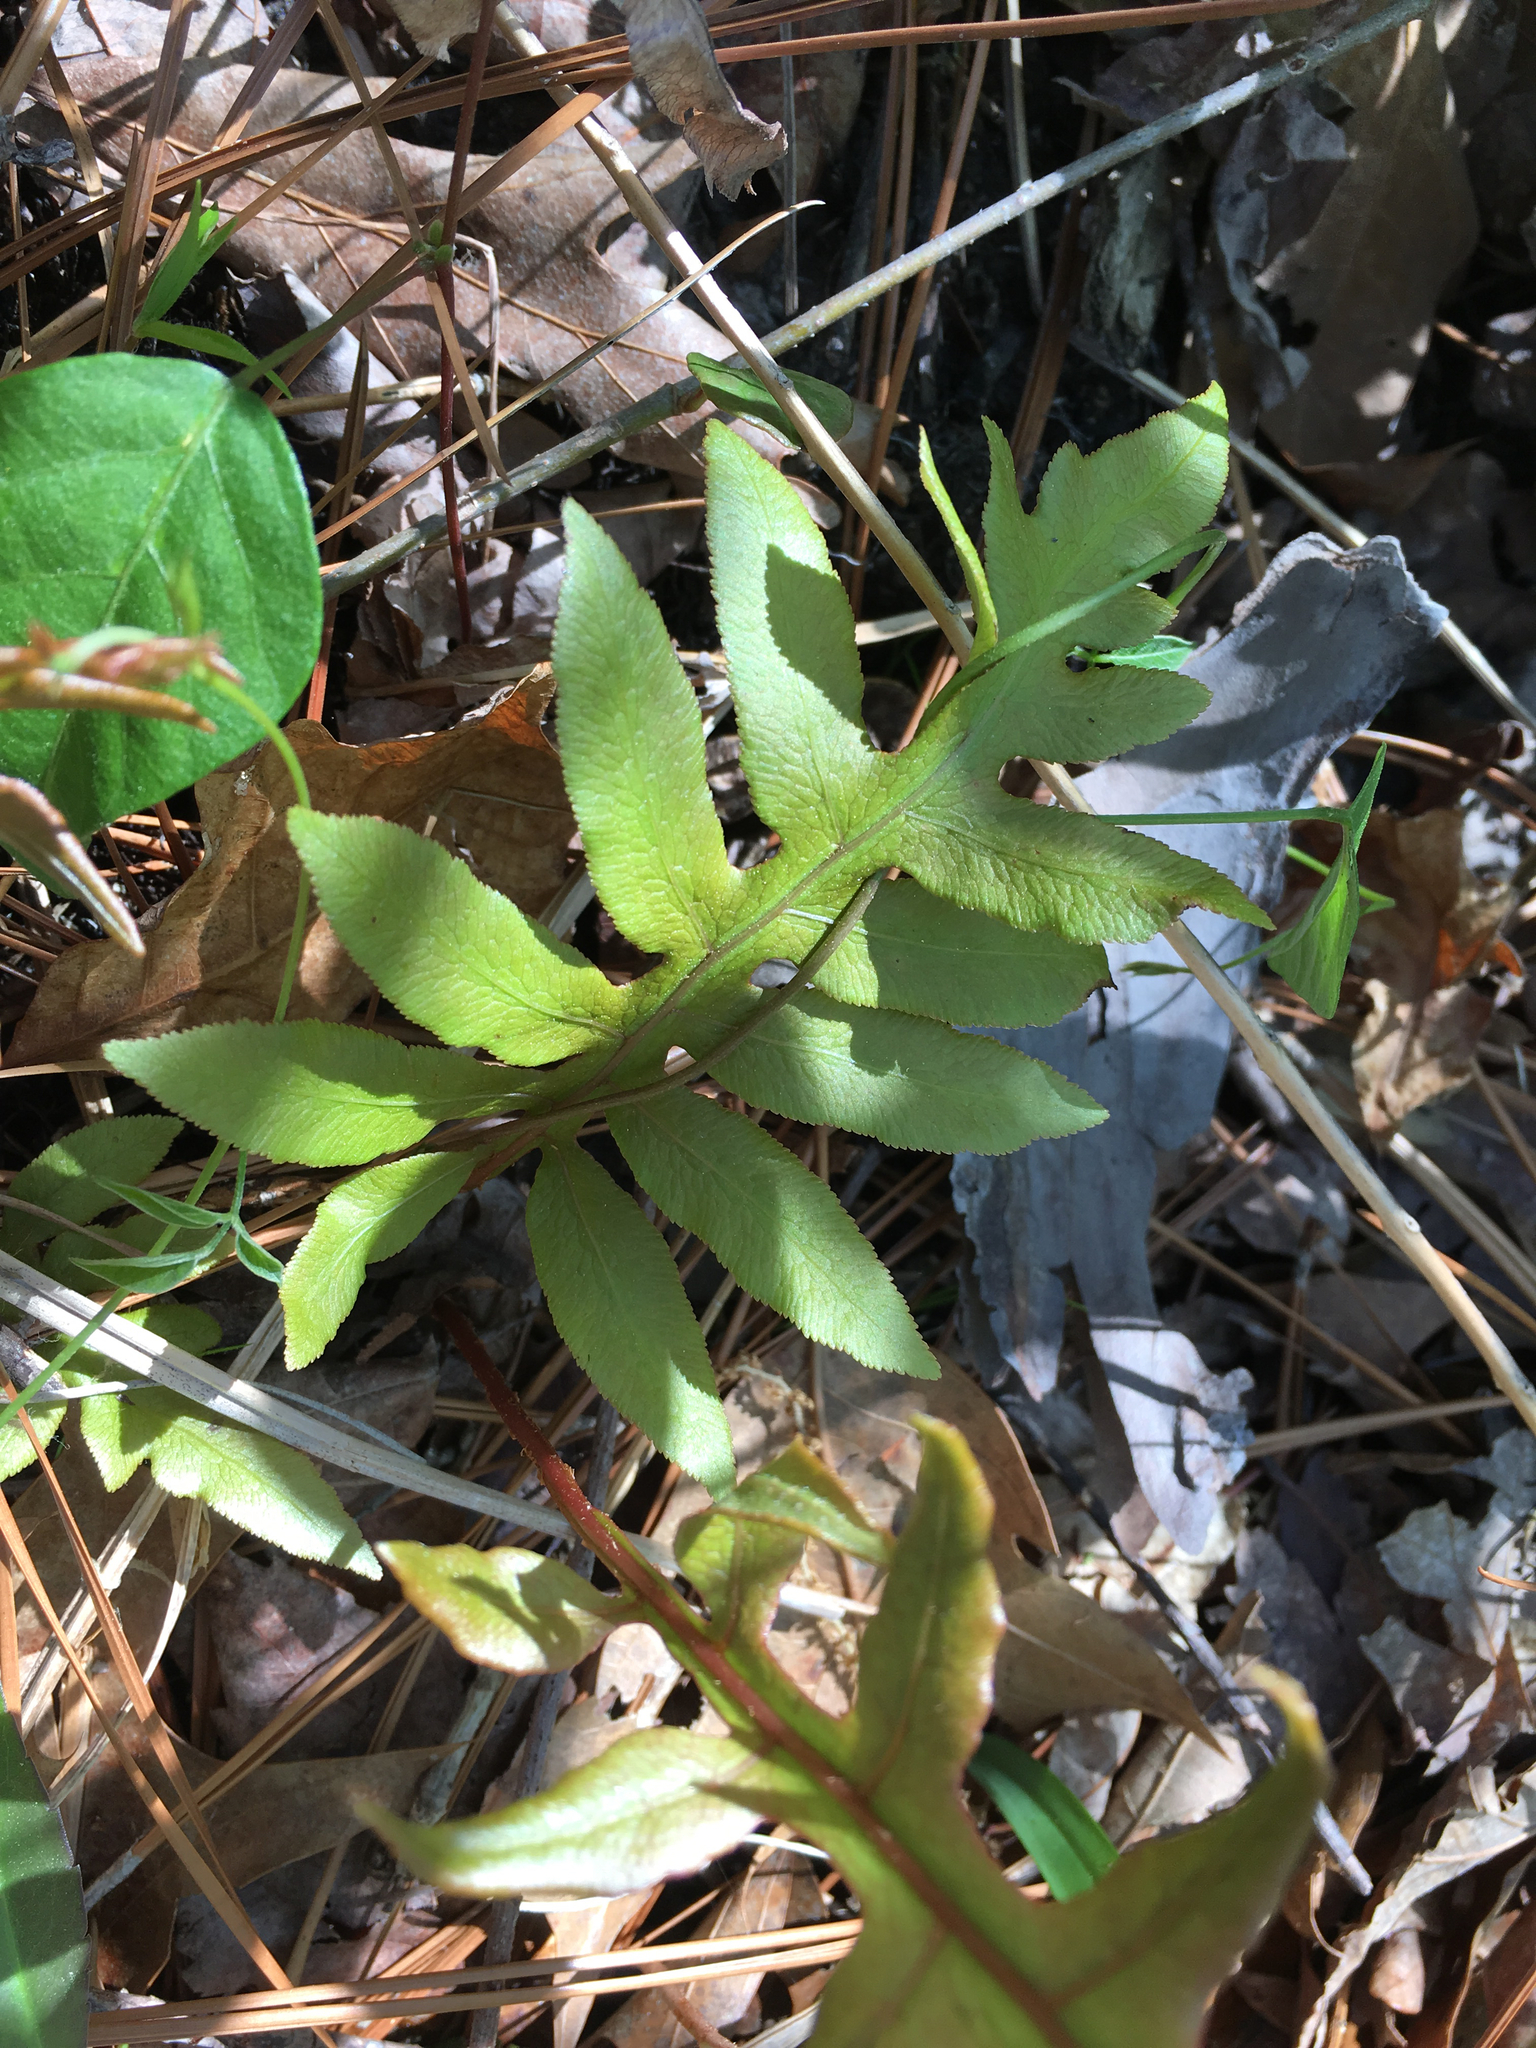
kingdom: Plantae
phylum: Tracheophyta
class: Polypodiopsida
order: Polypodiales
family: Blechnaceae
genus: Lorinseria
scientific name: Lorinseria areolata
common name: Dwarf chain fern
